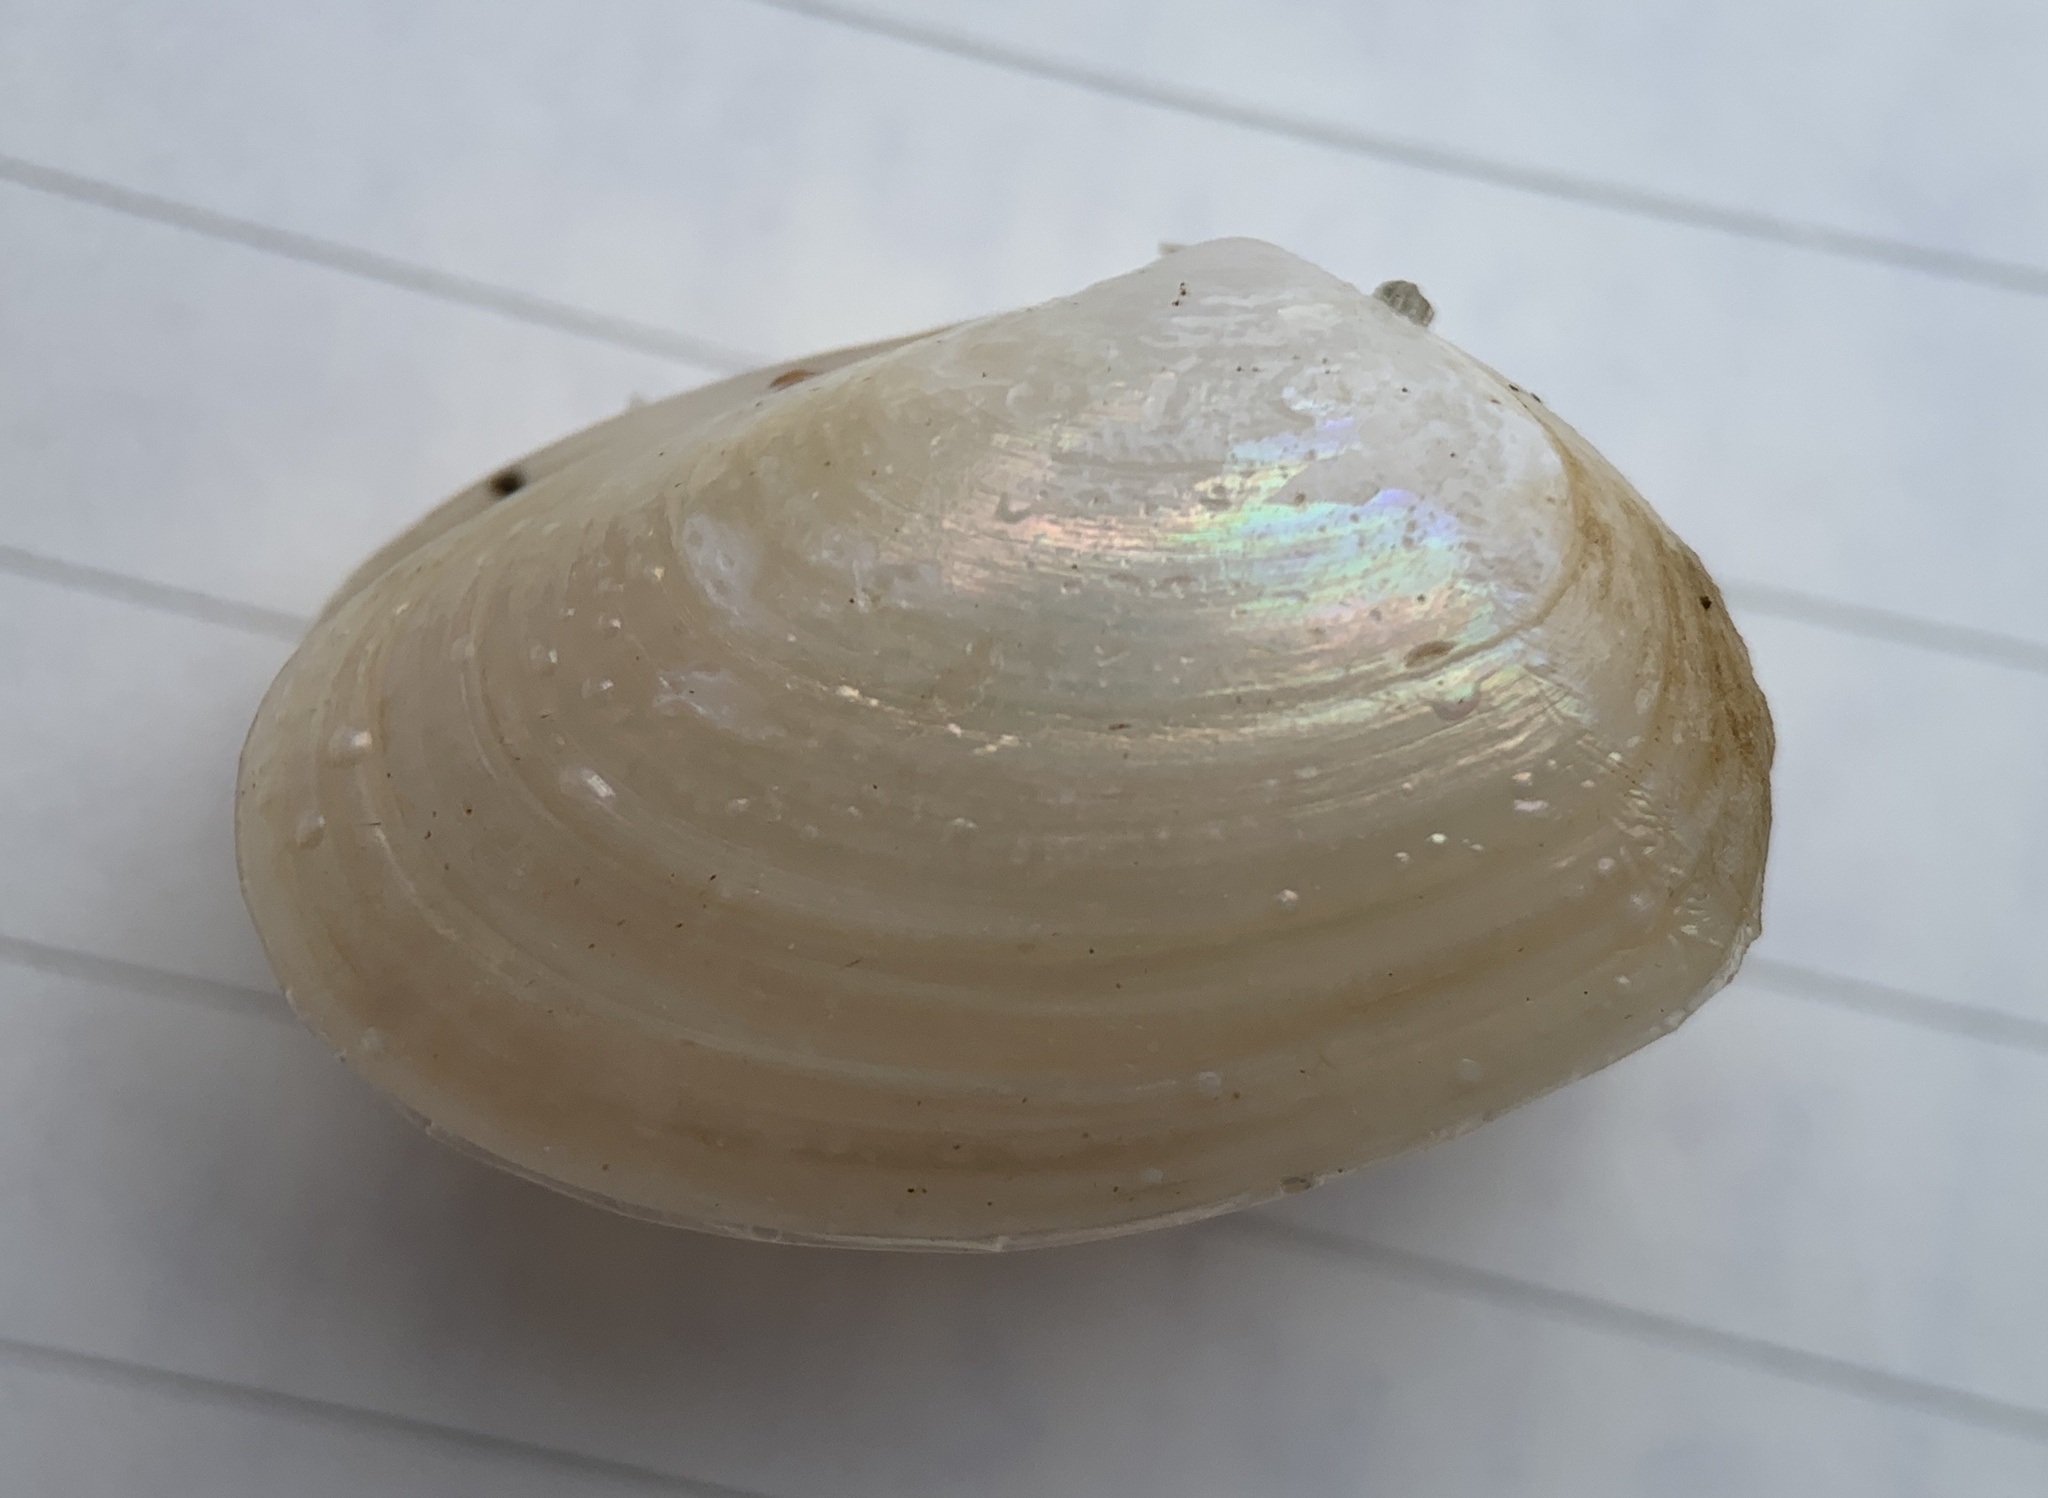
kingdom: Animalia
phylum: Mollusca
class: Bivalvia
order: Venerida
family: Mesodesmatidae
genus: Mesodesma
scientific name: Mesodesma arctatum
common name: Compressed clam
